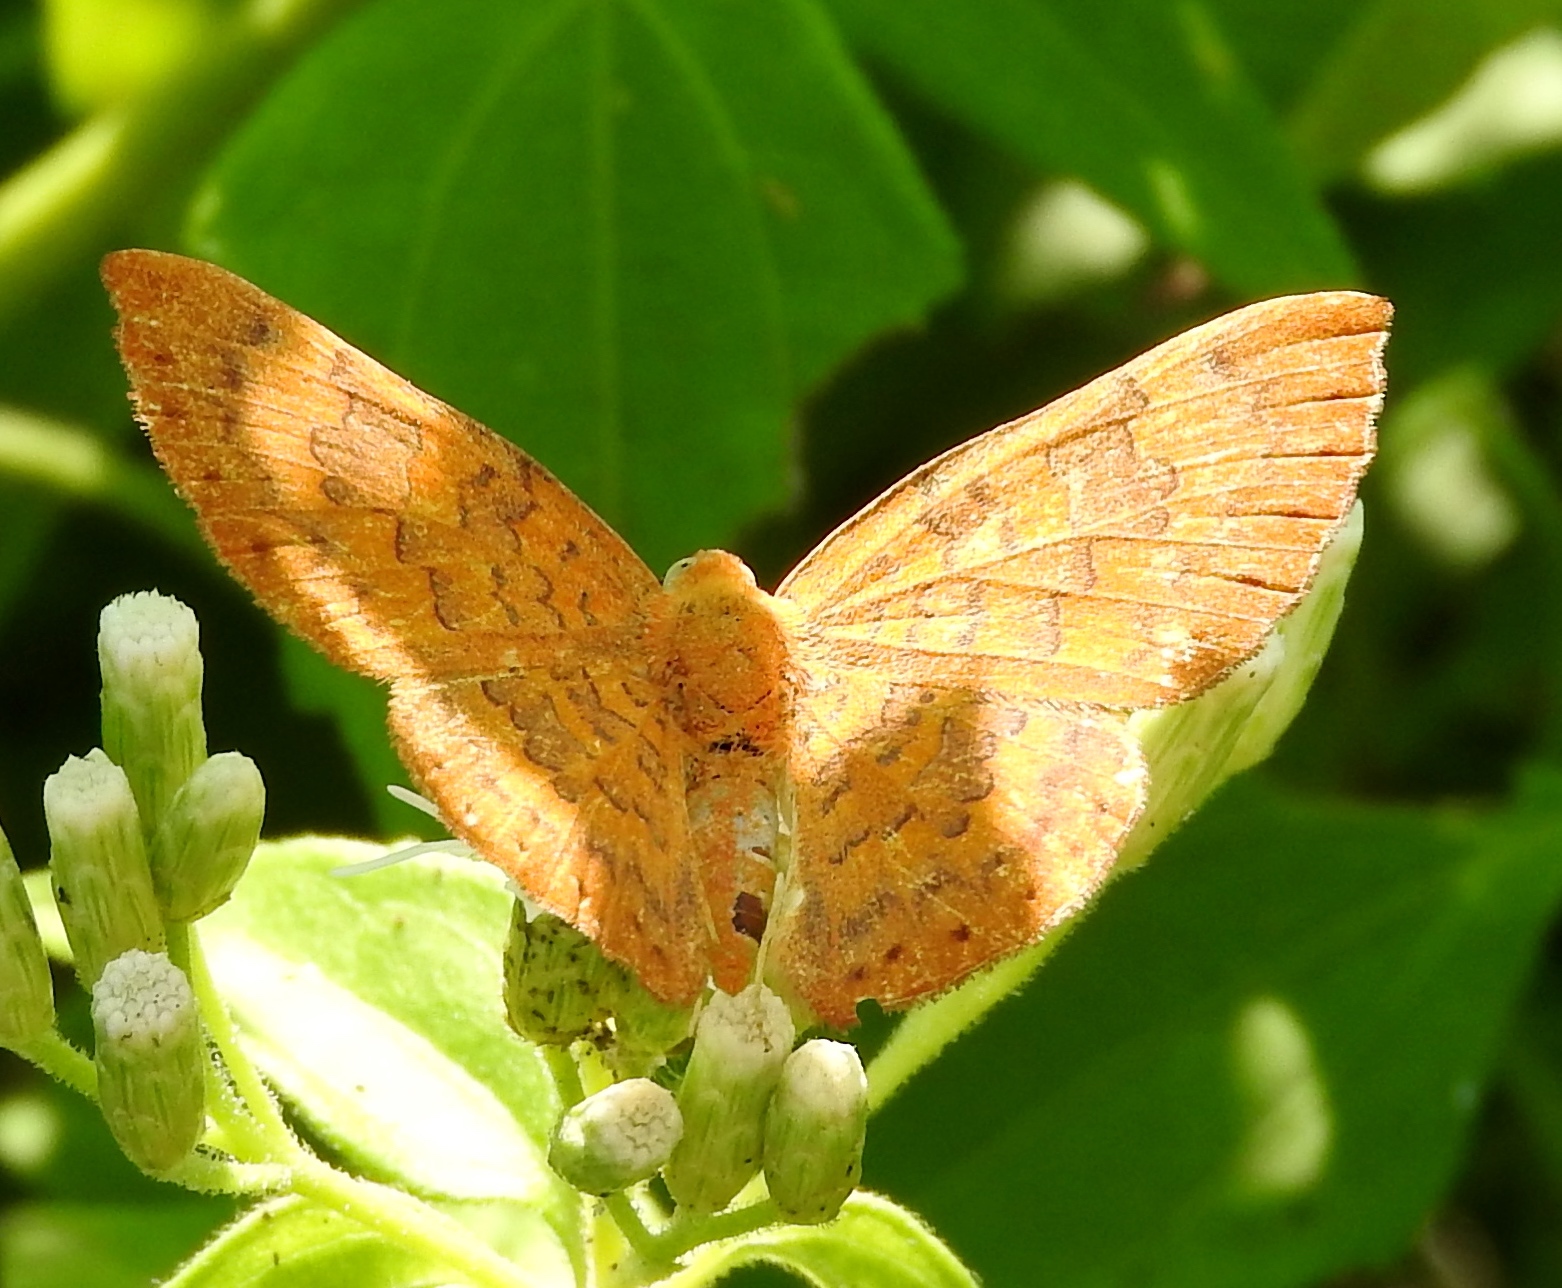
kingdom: Animalia
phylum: Arthropoda
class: Insecta
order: Lepidoptera
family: Lycaenidae
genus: Emesis
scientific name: Emesis
